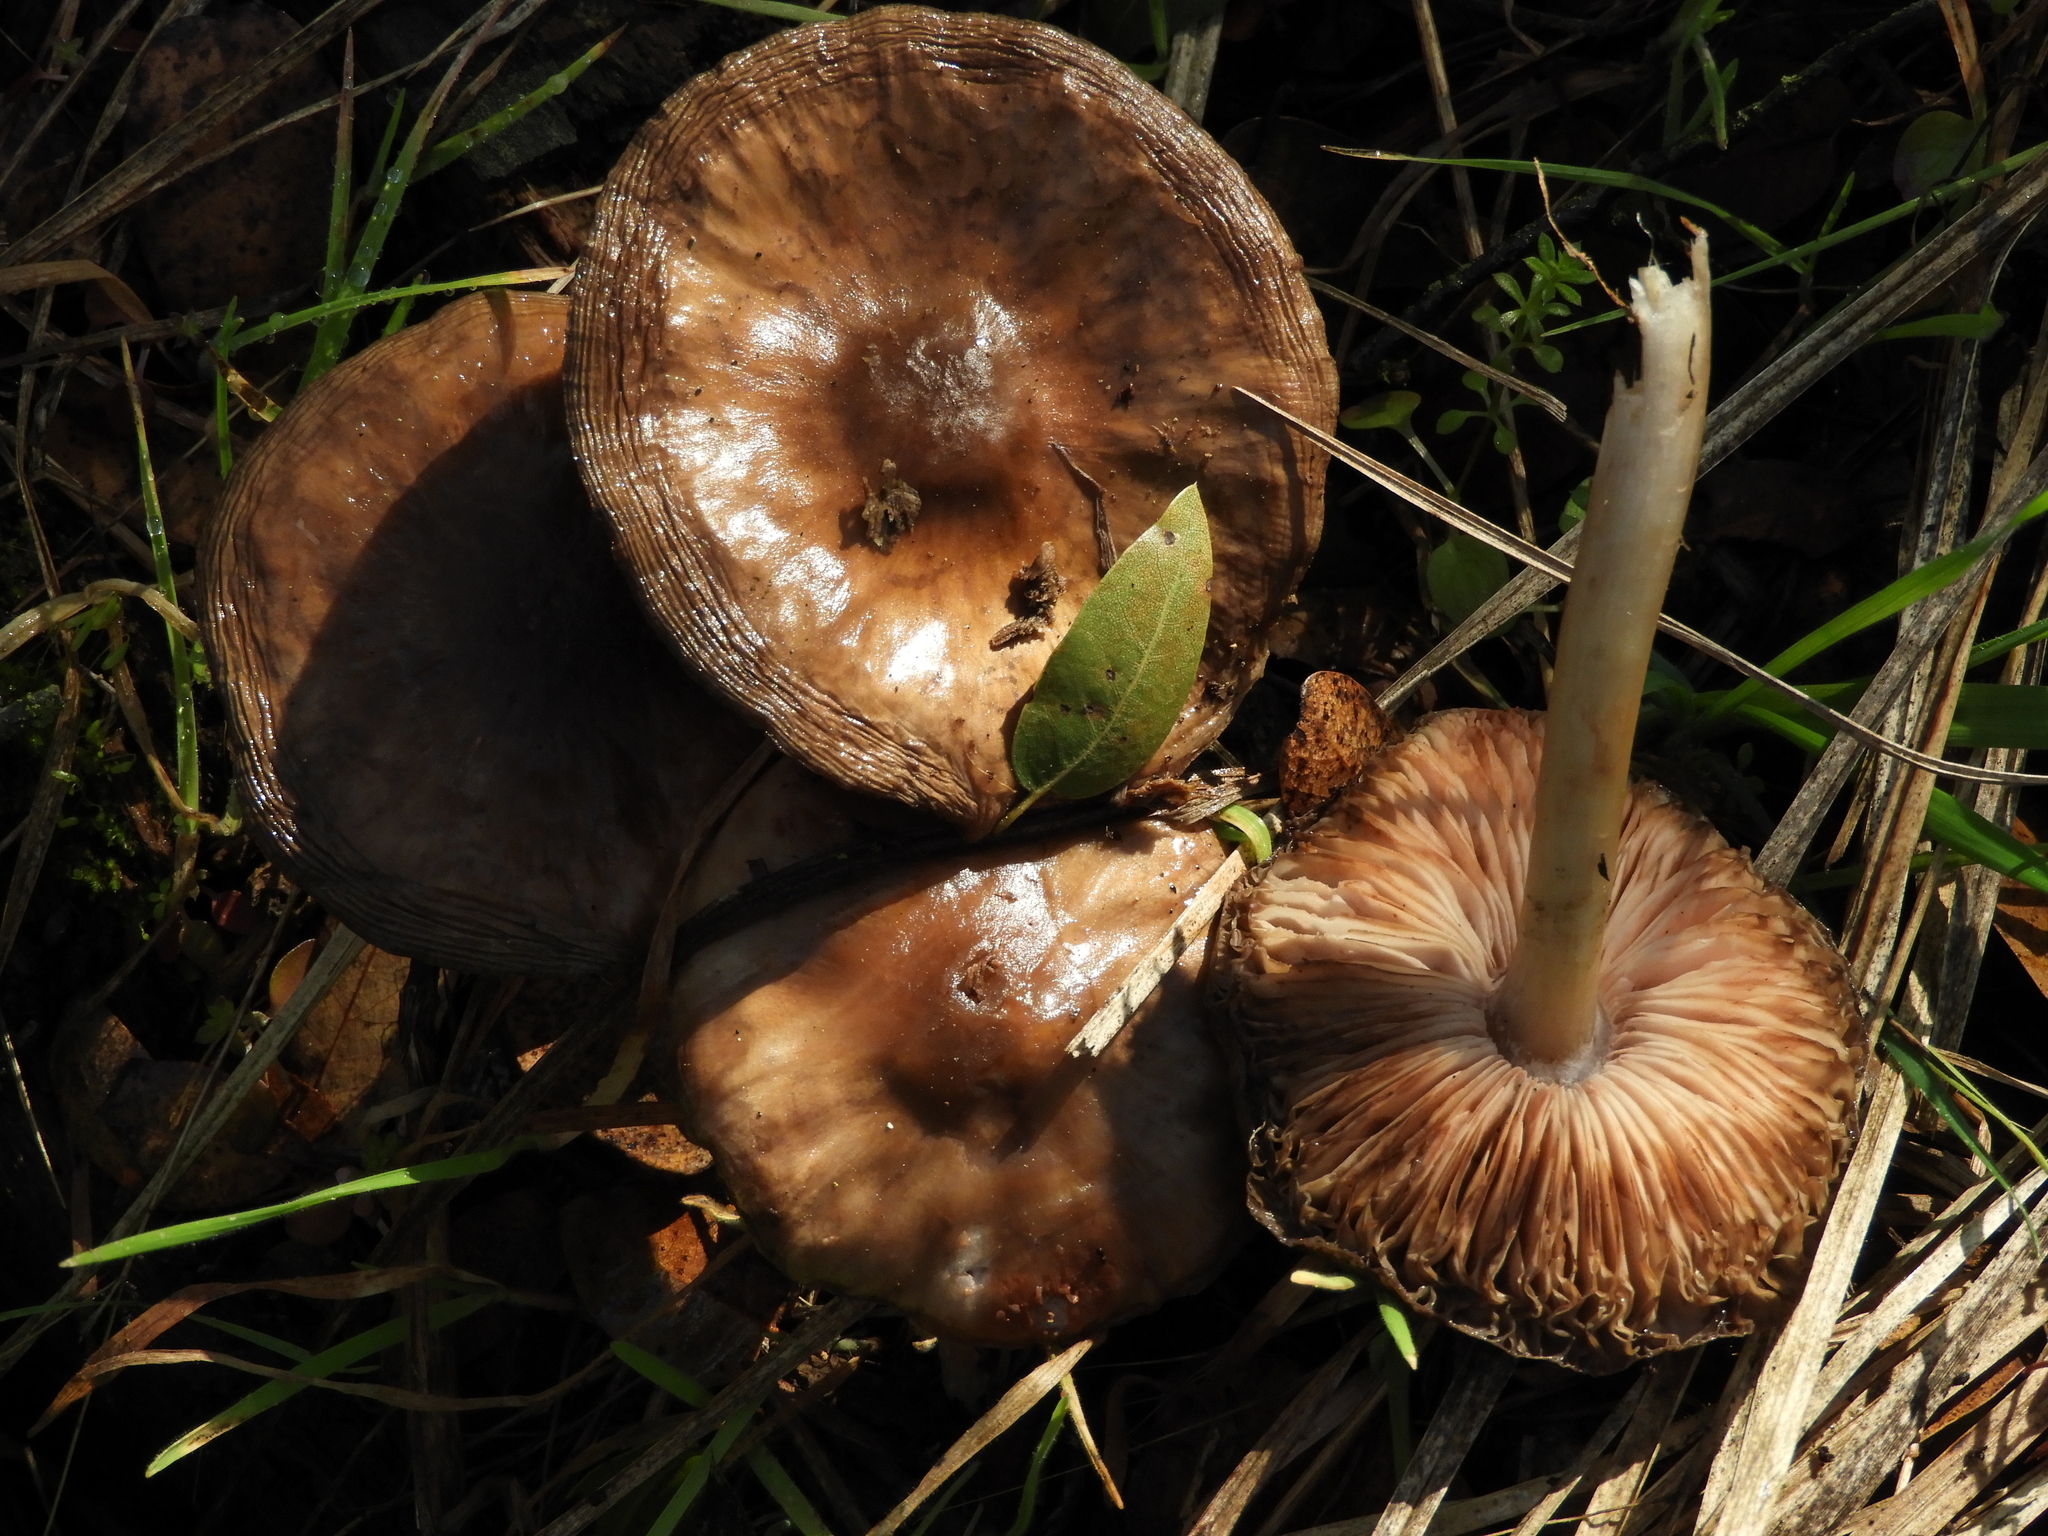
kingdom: Fungi
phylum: Basidiomycota
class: Agaricomycetes
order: Agaricales
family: Pluteaceae
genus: Pluteus
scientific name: Pluteus cervinus
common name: Deer shield
